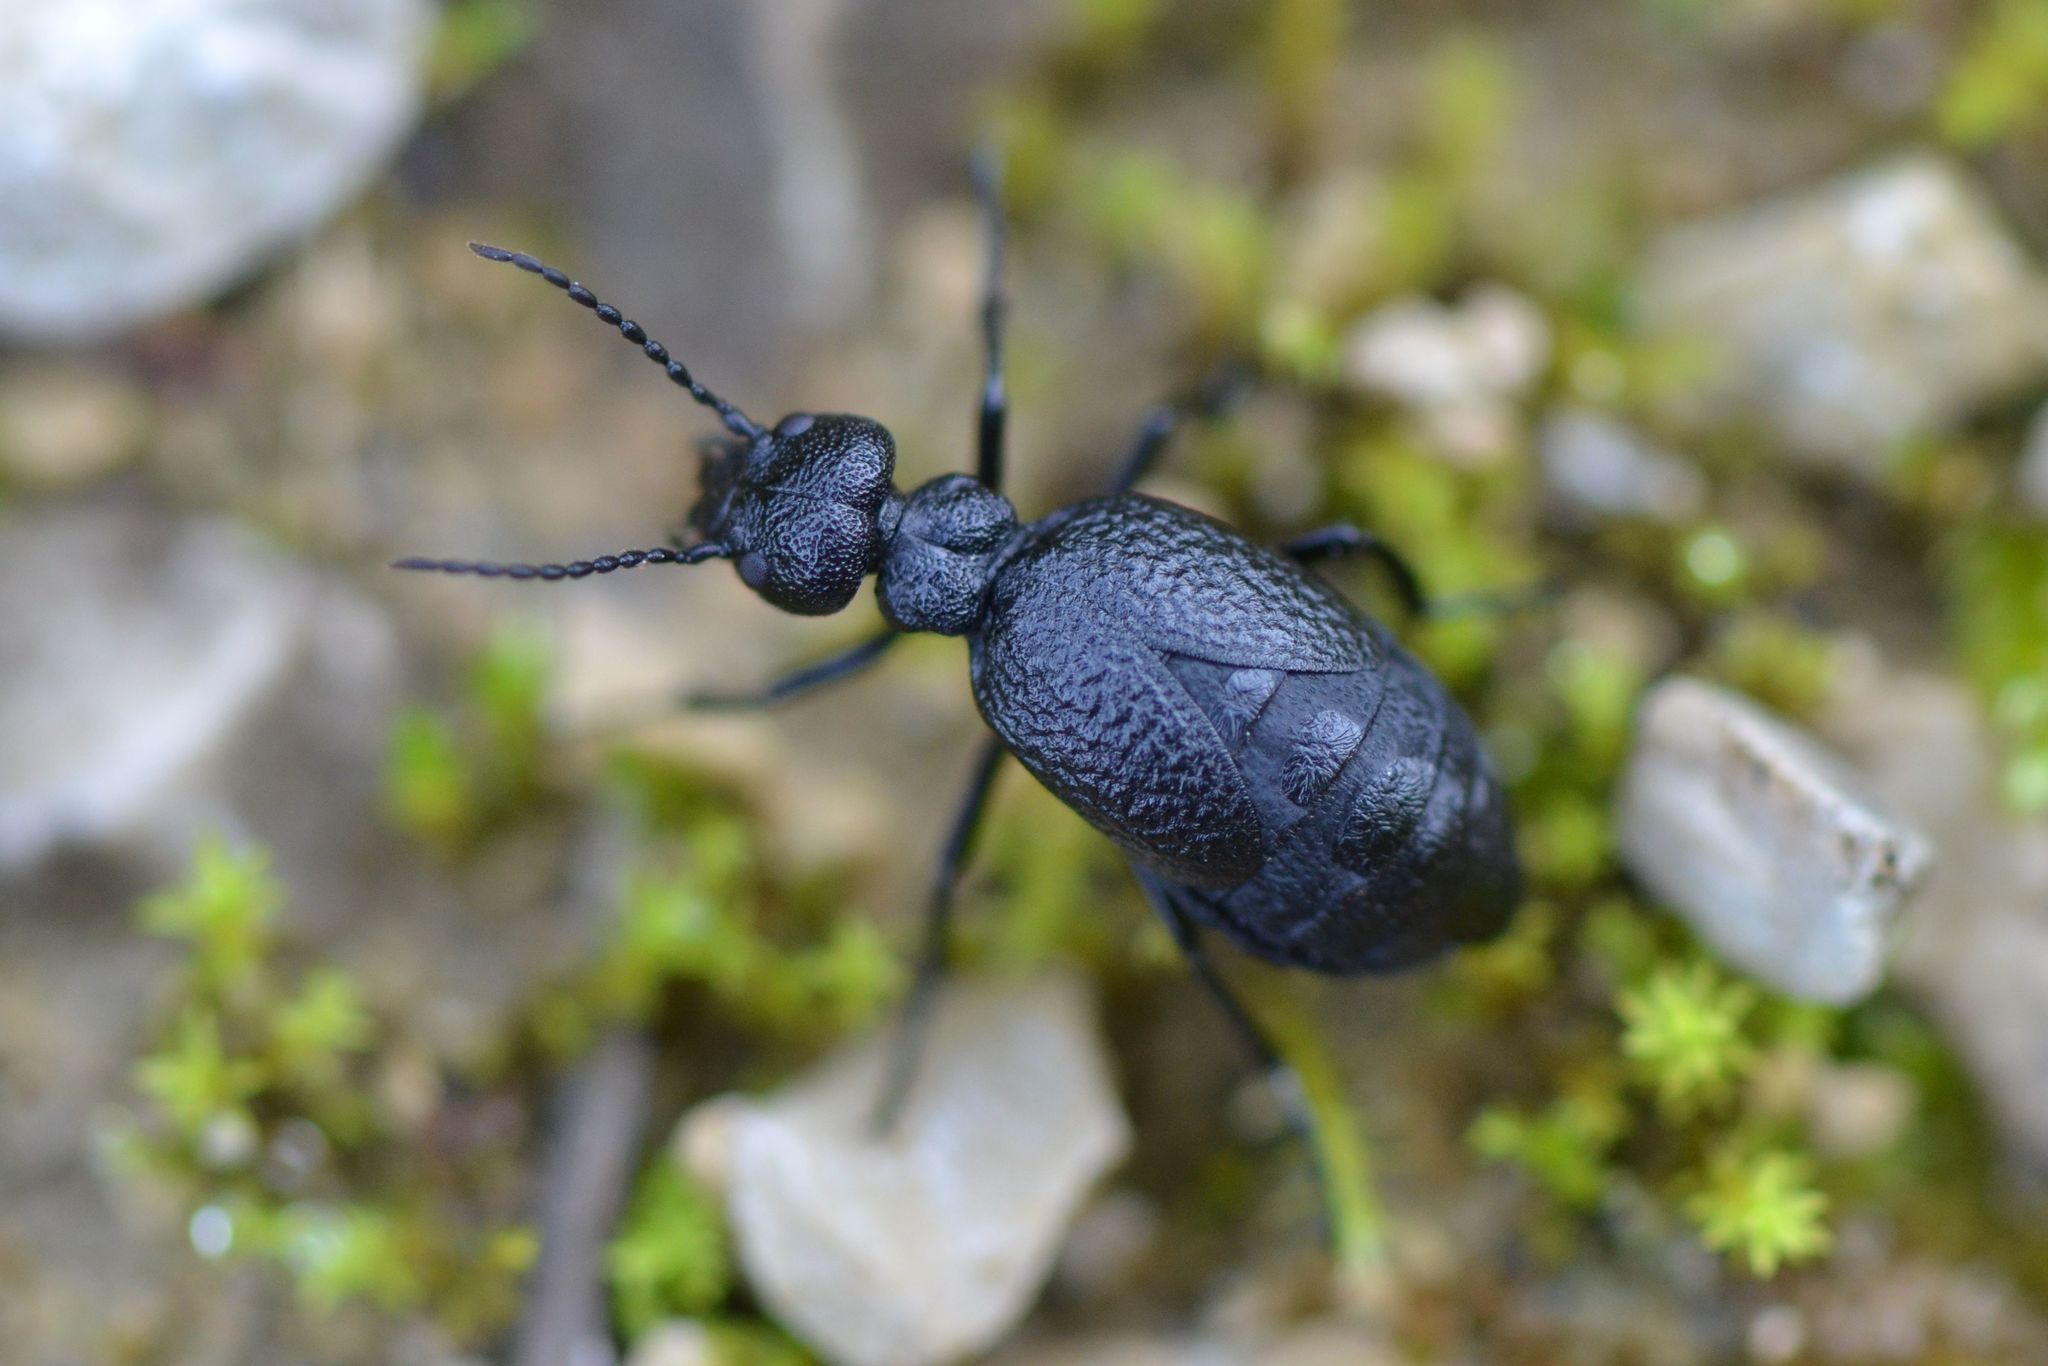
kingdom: Animalia
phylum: Arthropoda
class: Insecta
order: Coleoptera
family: Meloidae
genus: Meloe
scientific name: Meloe rugosus
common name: Rugged oil-beetle
